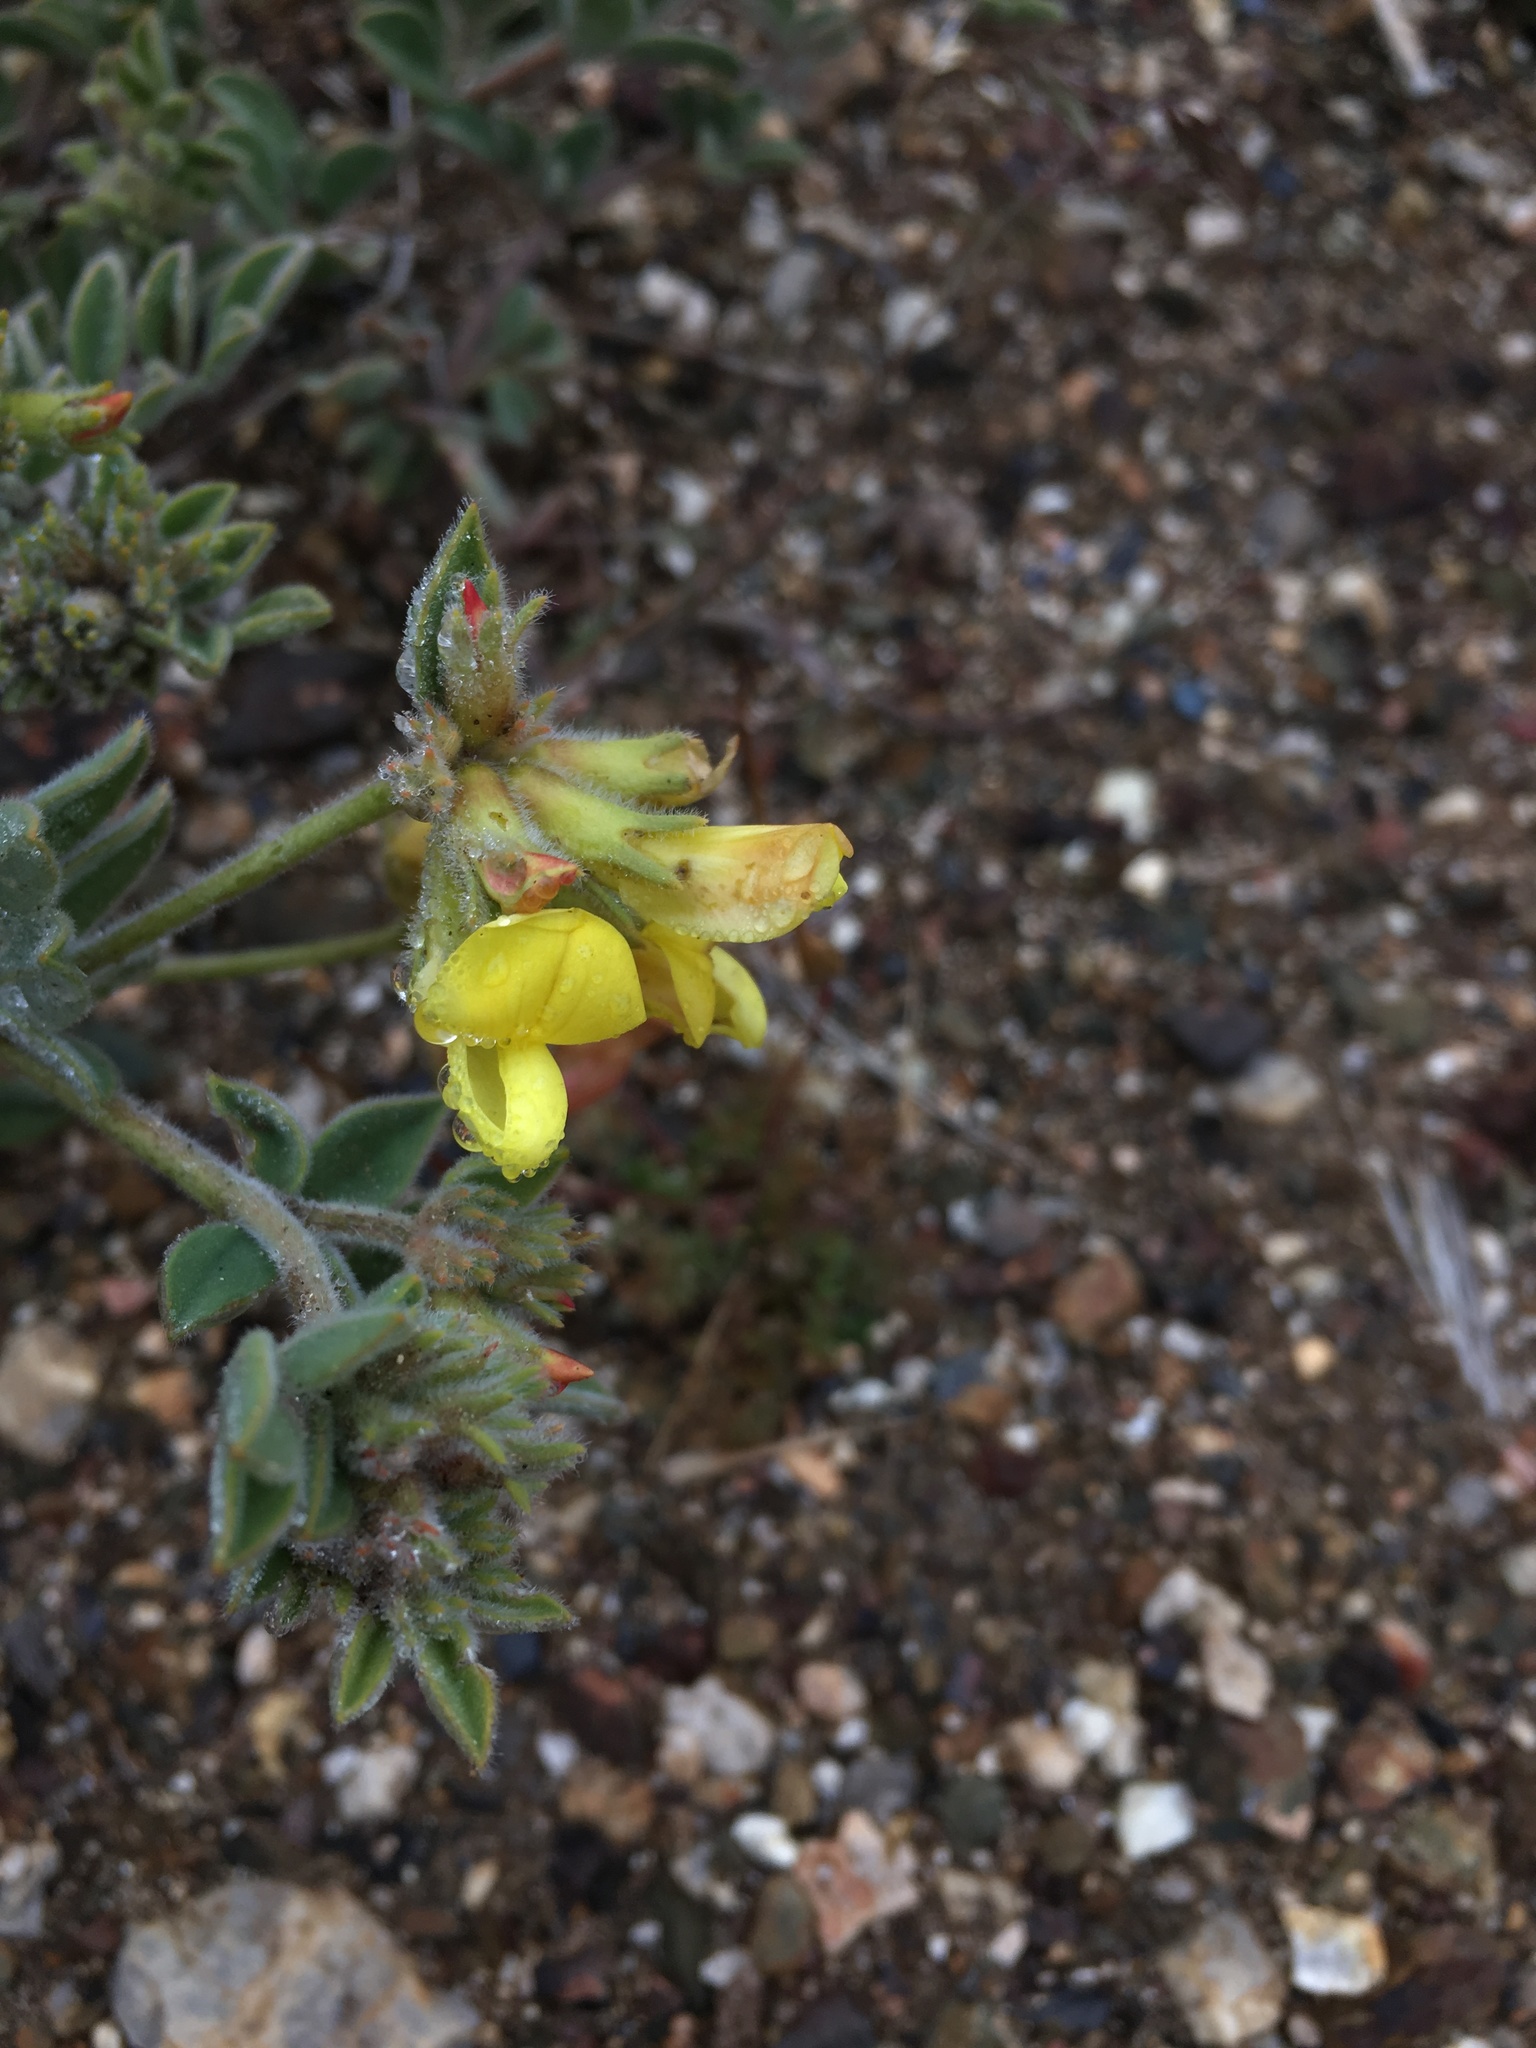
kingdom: Plantae
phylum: Tracheophyta
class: Magnoliopsida
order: Fabales
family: Fabaceae
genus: Acmispon
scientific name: Acmispon grandiflorus
